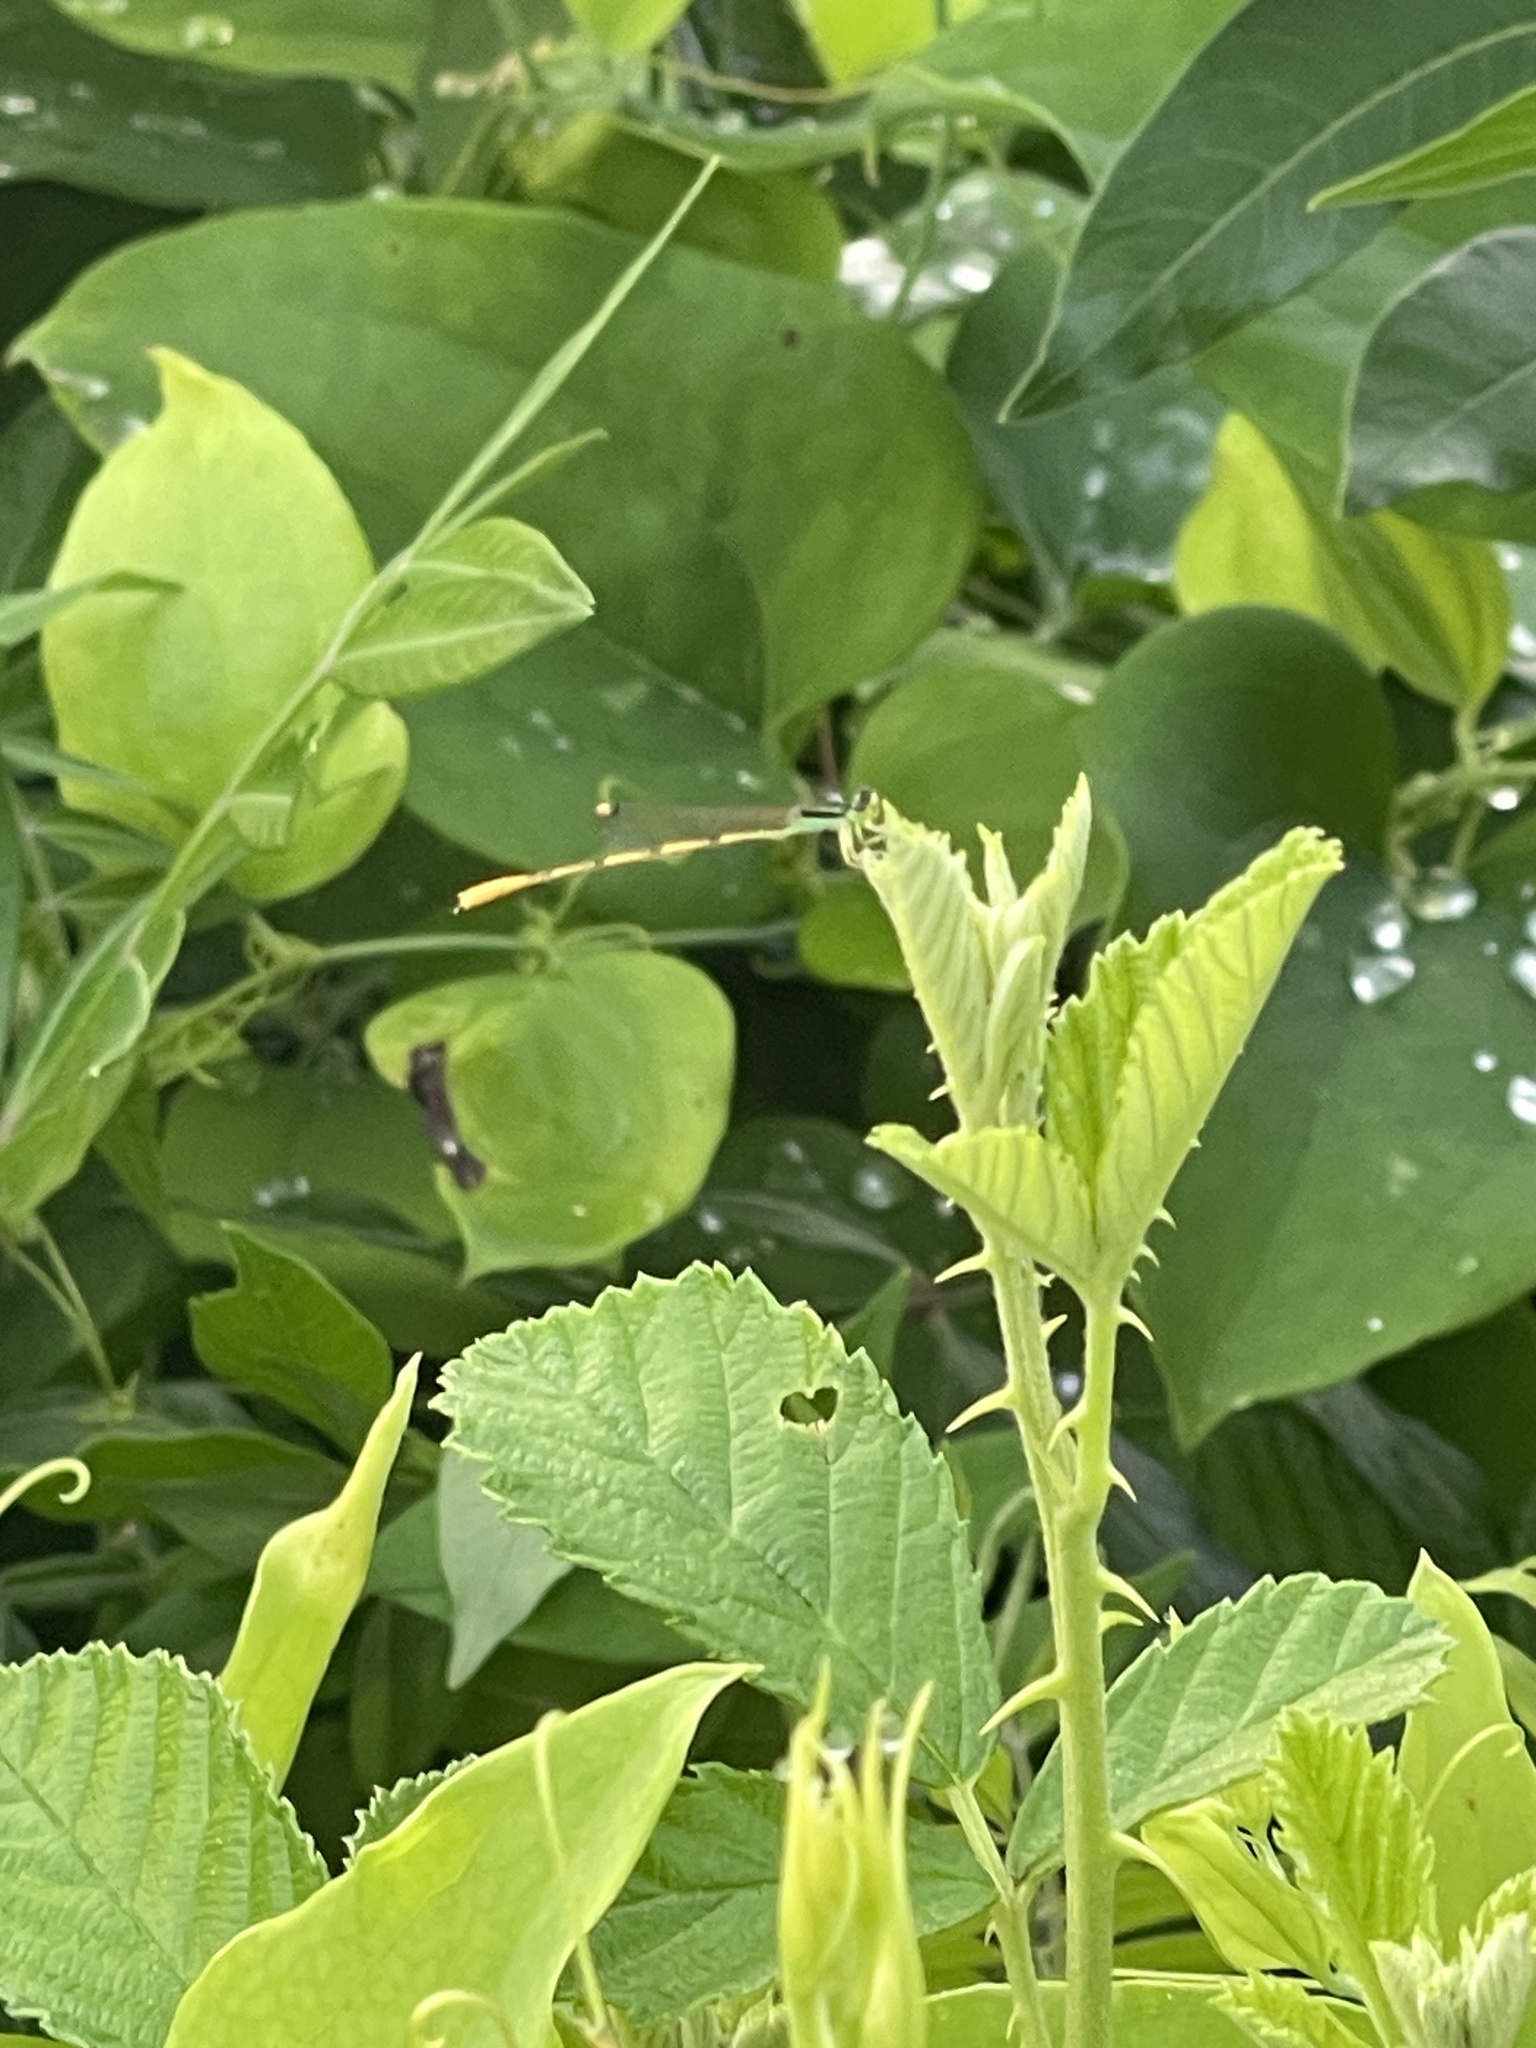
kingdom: Animalia
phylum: Arthropoda
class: Insecta
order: Odonata
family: Coenagrionidae
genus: Ischnura
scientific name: Ischnura hastata
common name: Citrine forktail
